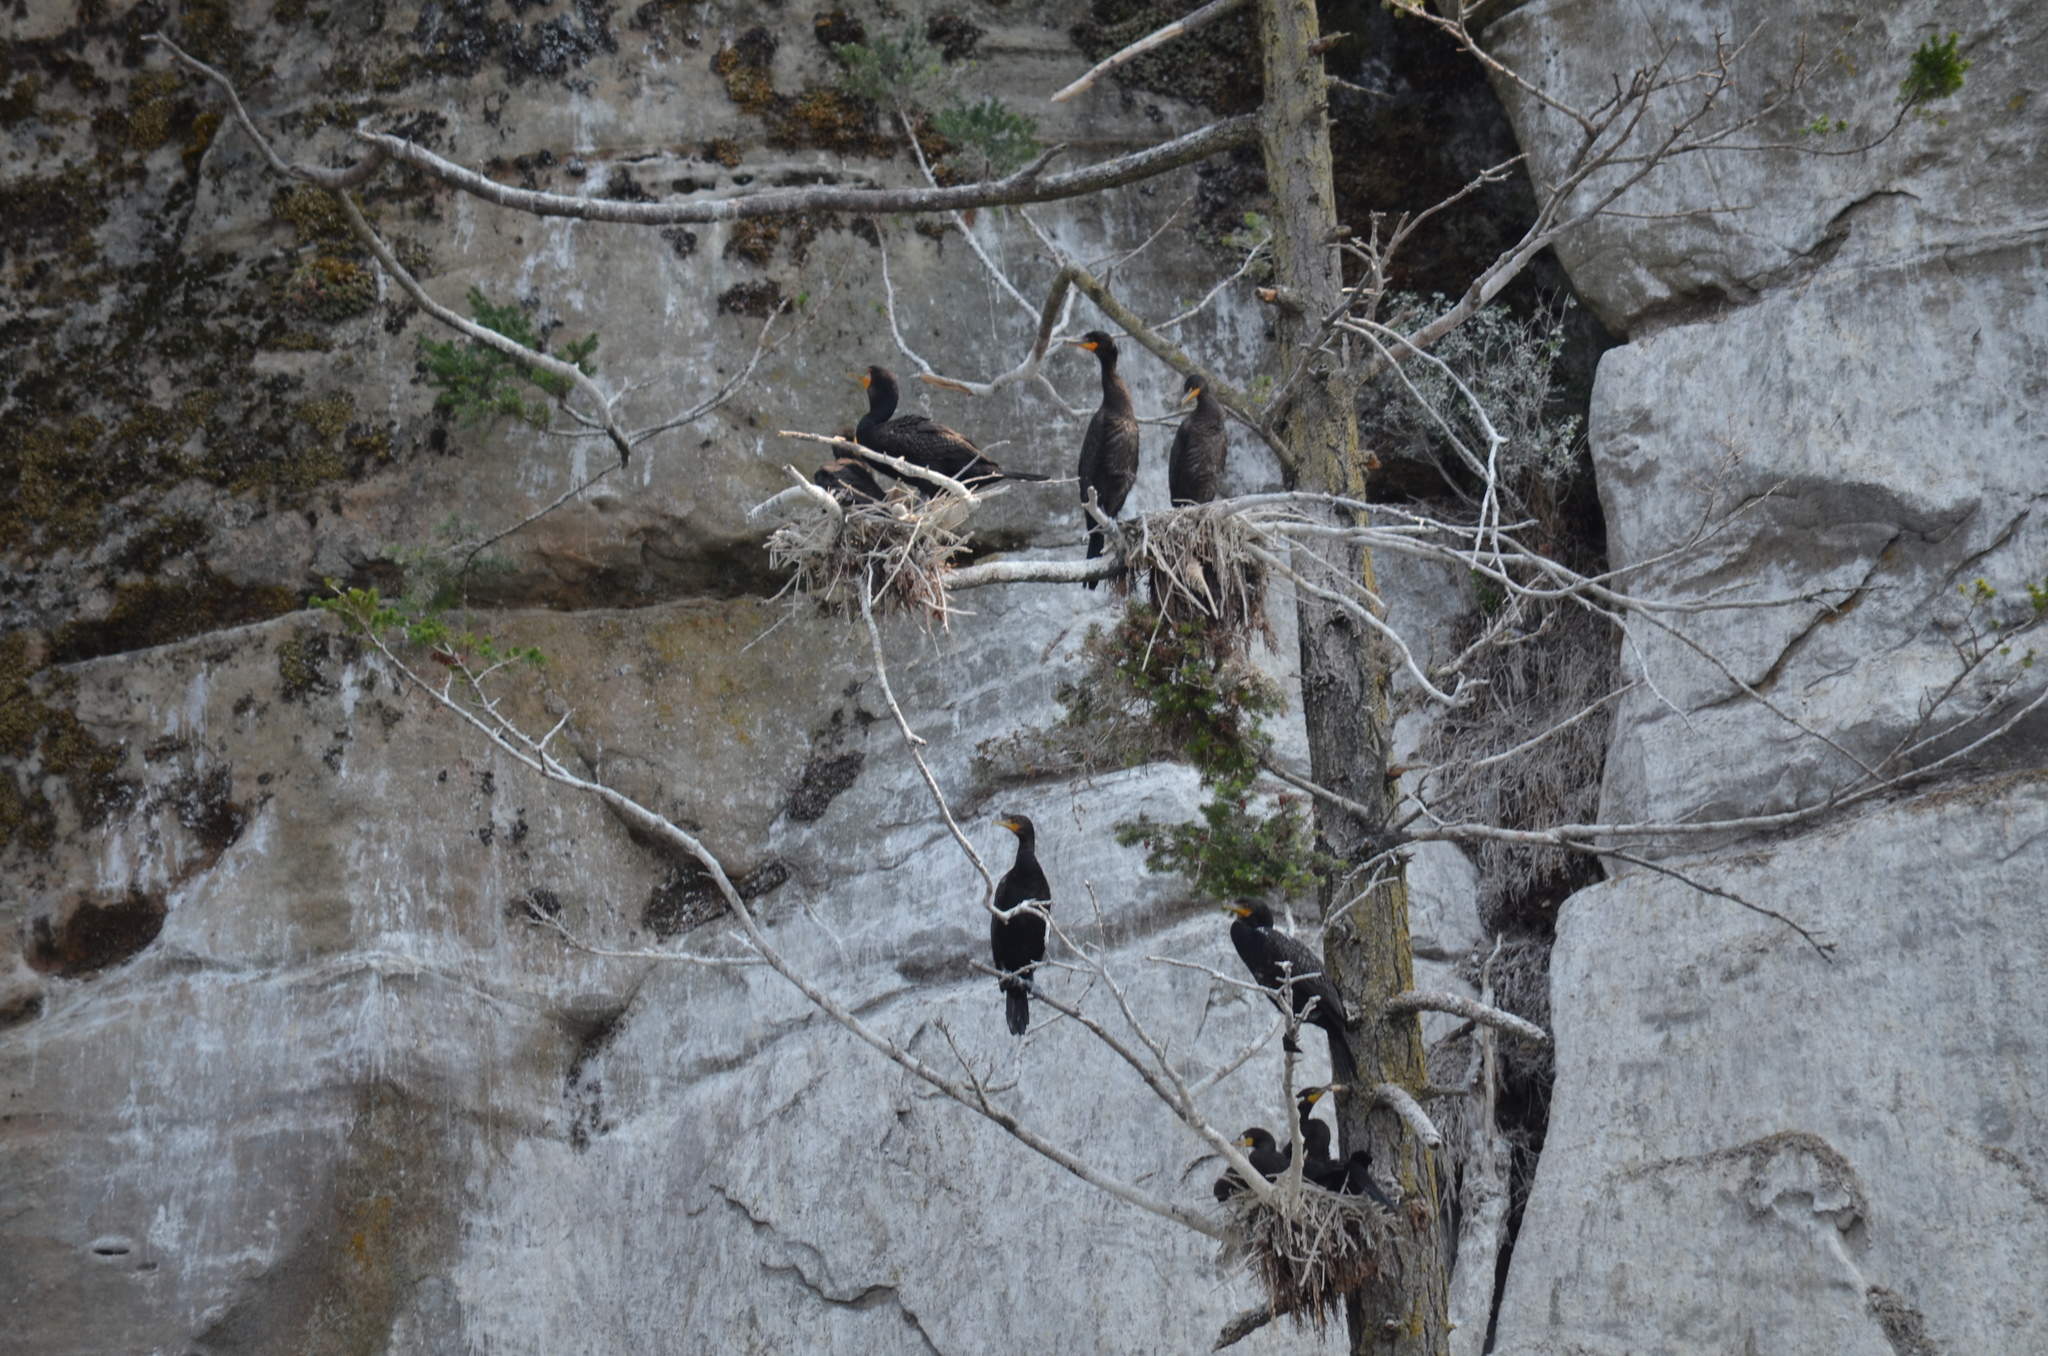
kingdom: Animalia
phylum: Chordata
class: Aves
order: Suliformes
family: Phalacrocoracidae
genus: Phalacrocorax
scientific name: Phalacrocorax auritus
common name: Double-crested cormorant
